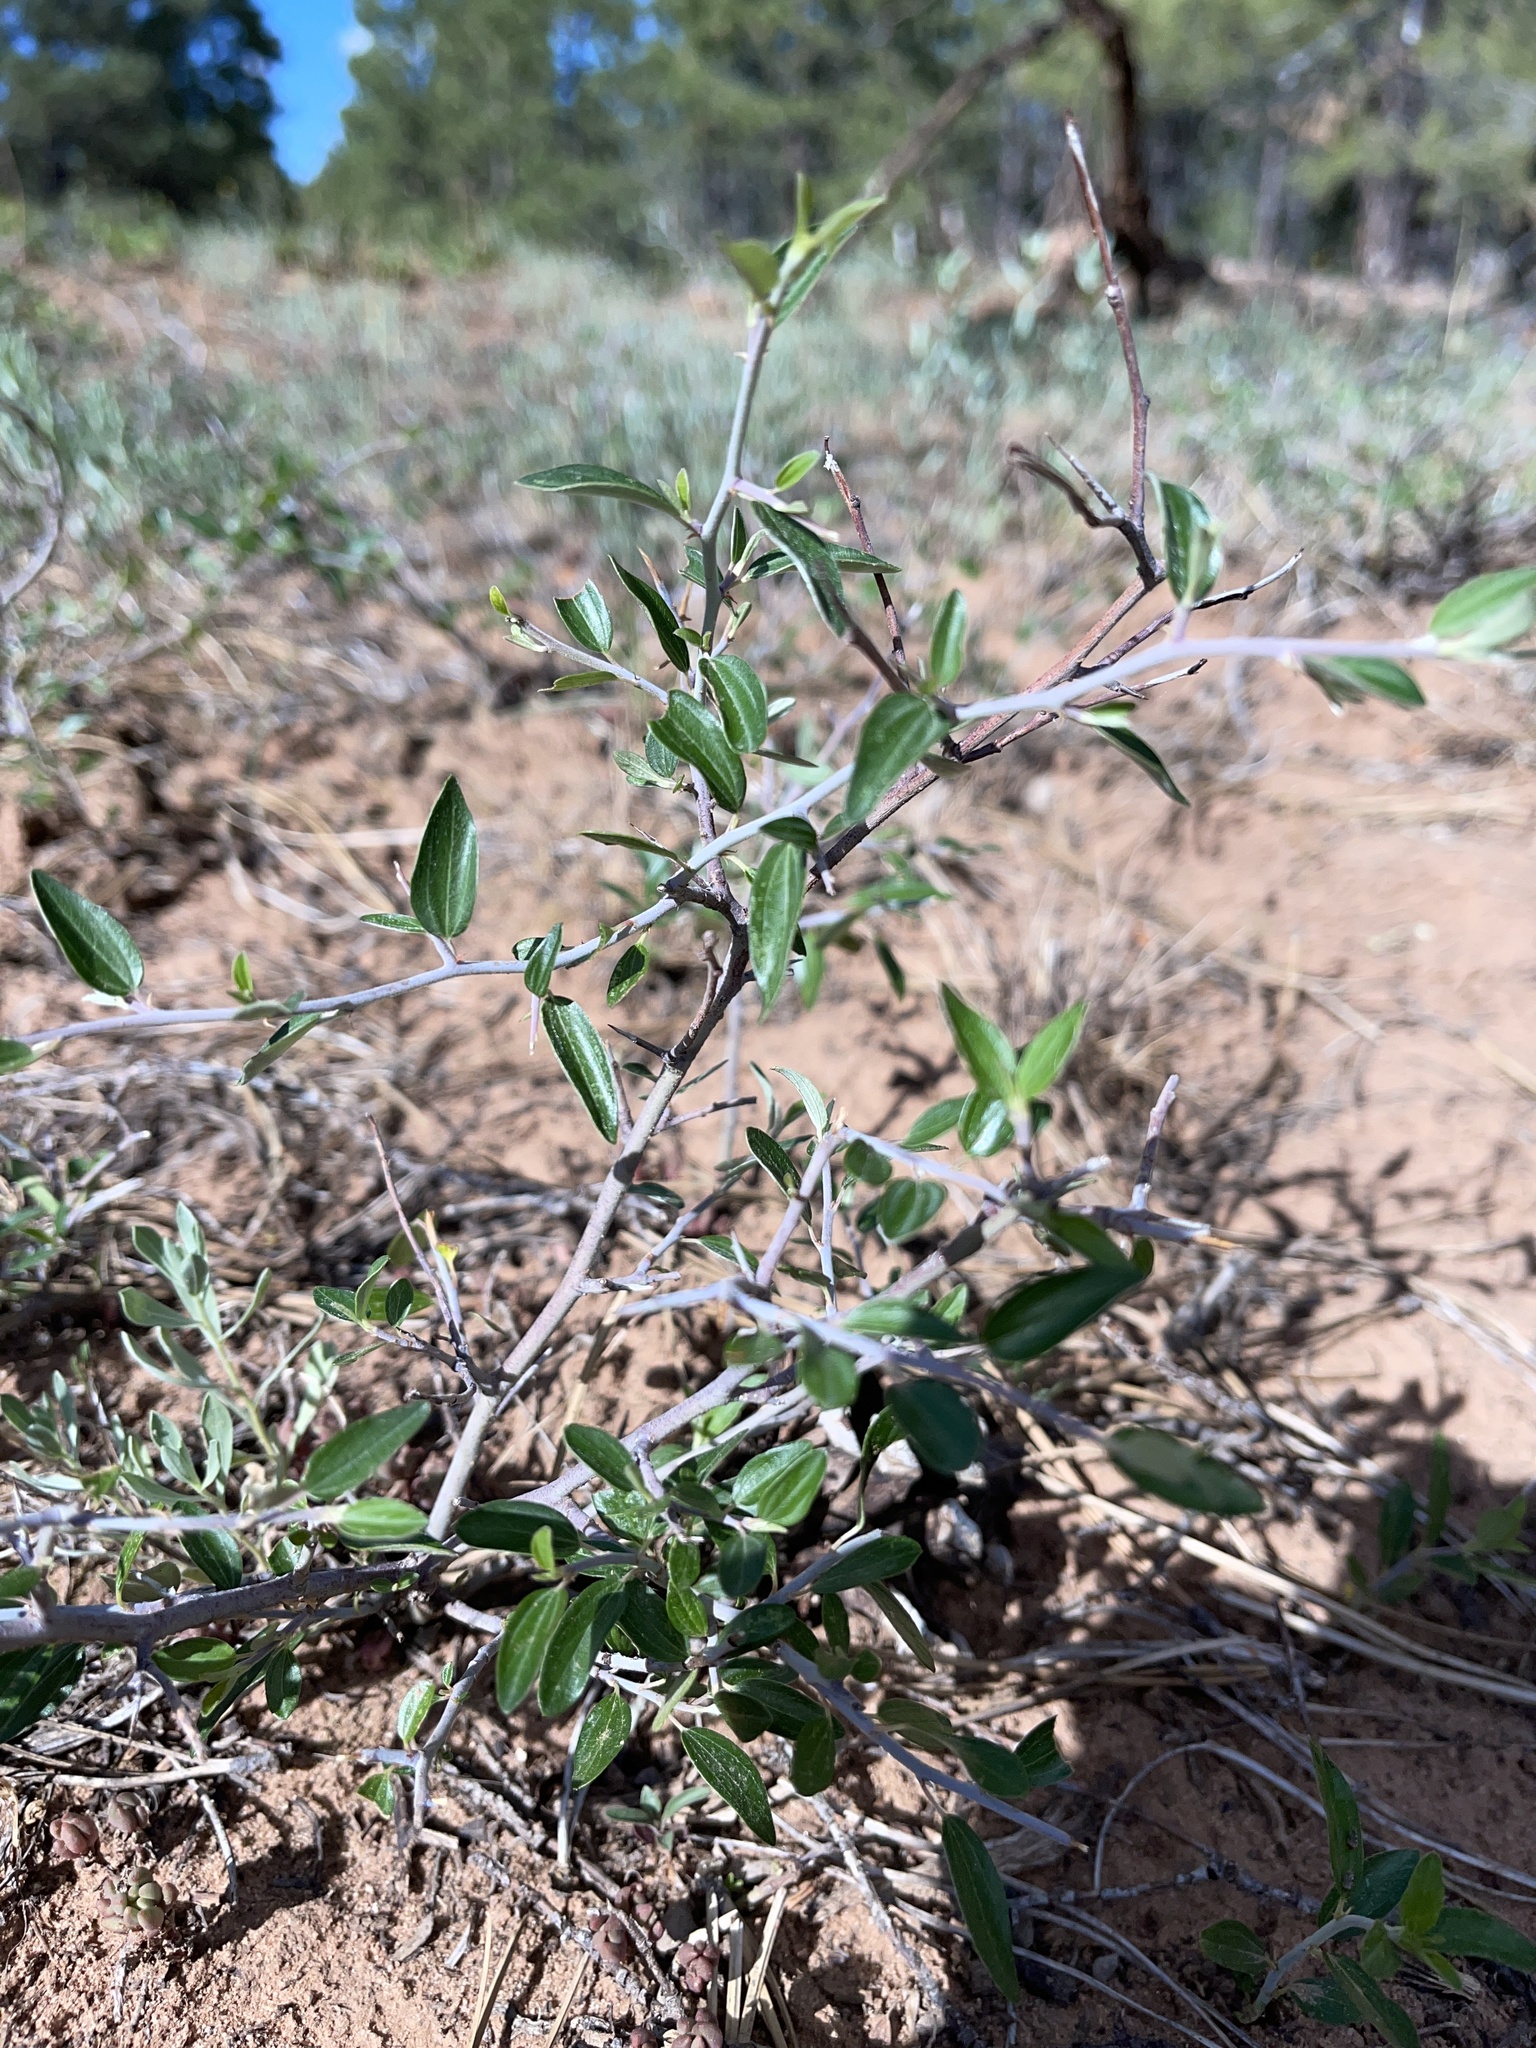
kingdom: Plantae
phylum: Tracheophyta
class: Magnoliopsida
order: Rosales
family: Rhamnaceae
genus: Ceanothus
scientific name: Ceanothus fendleri
